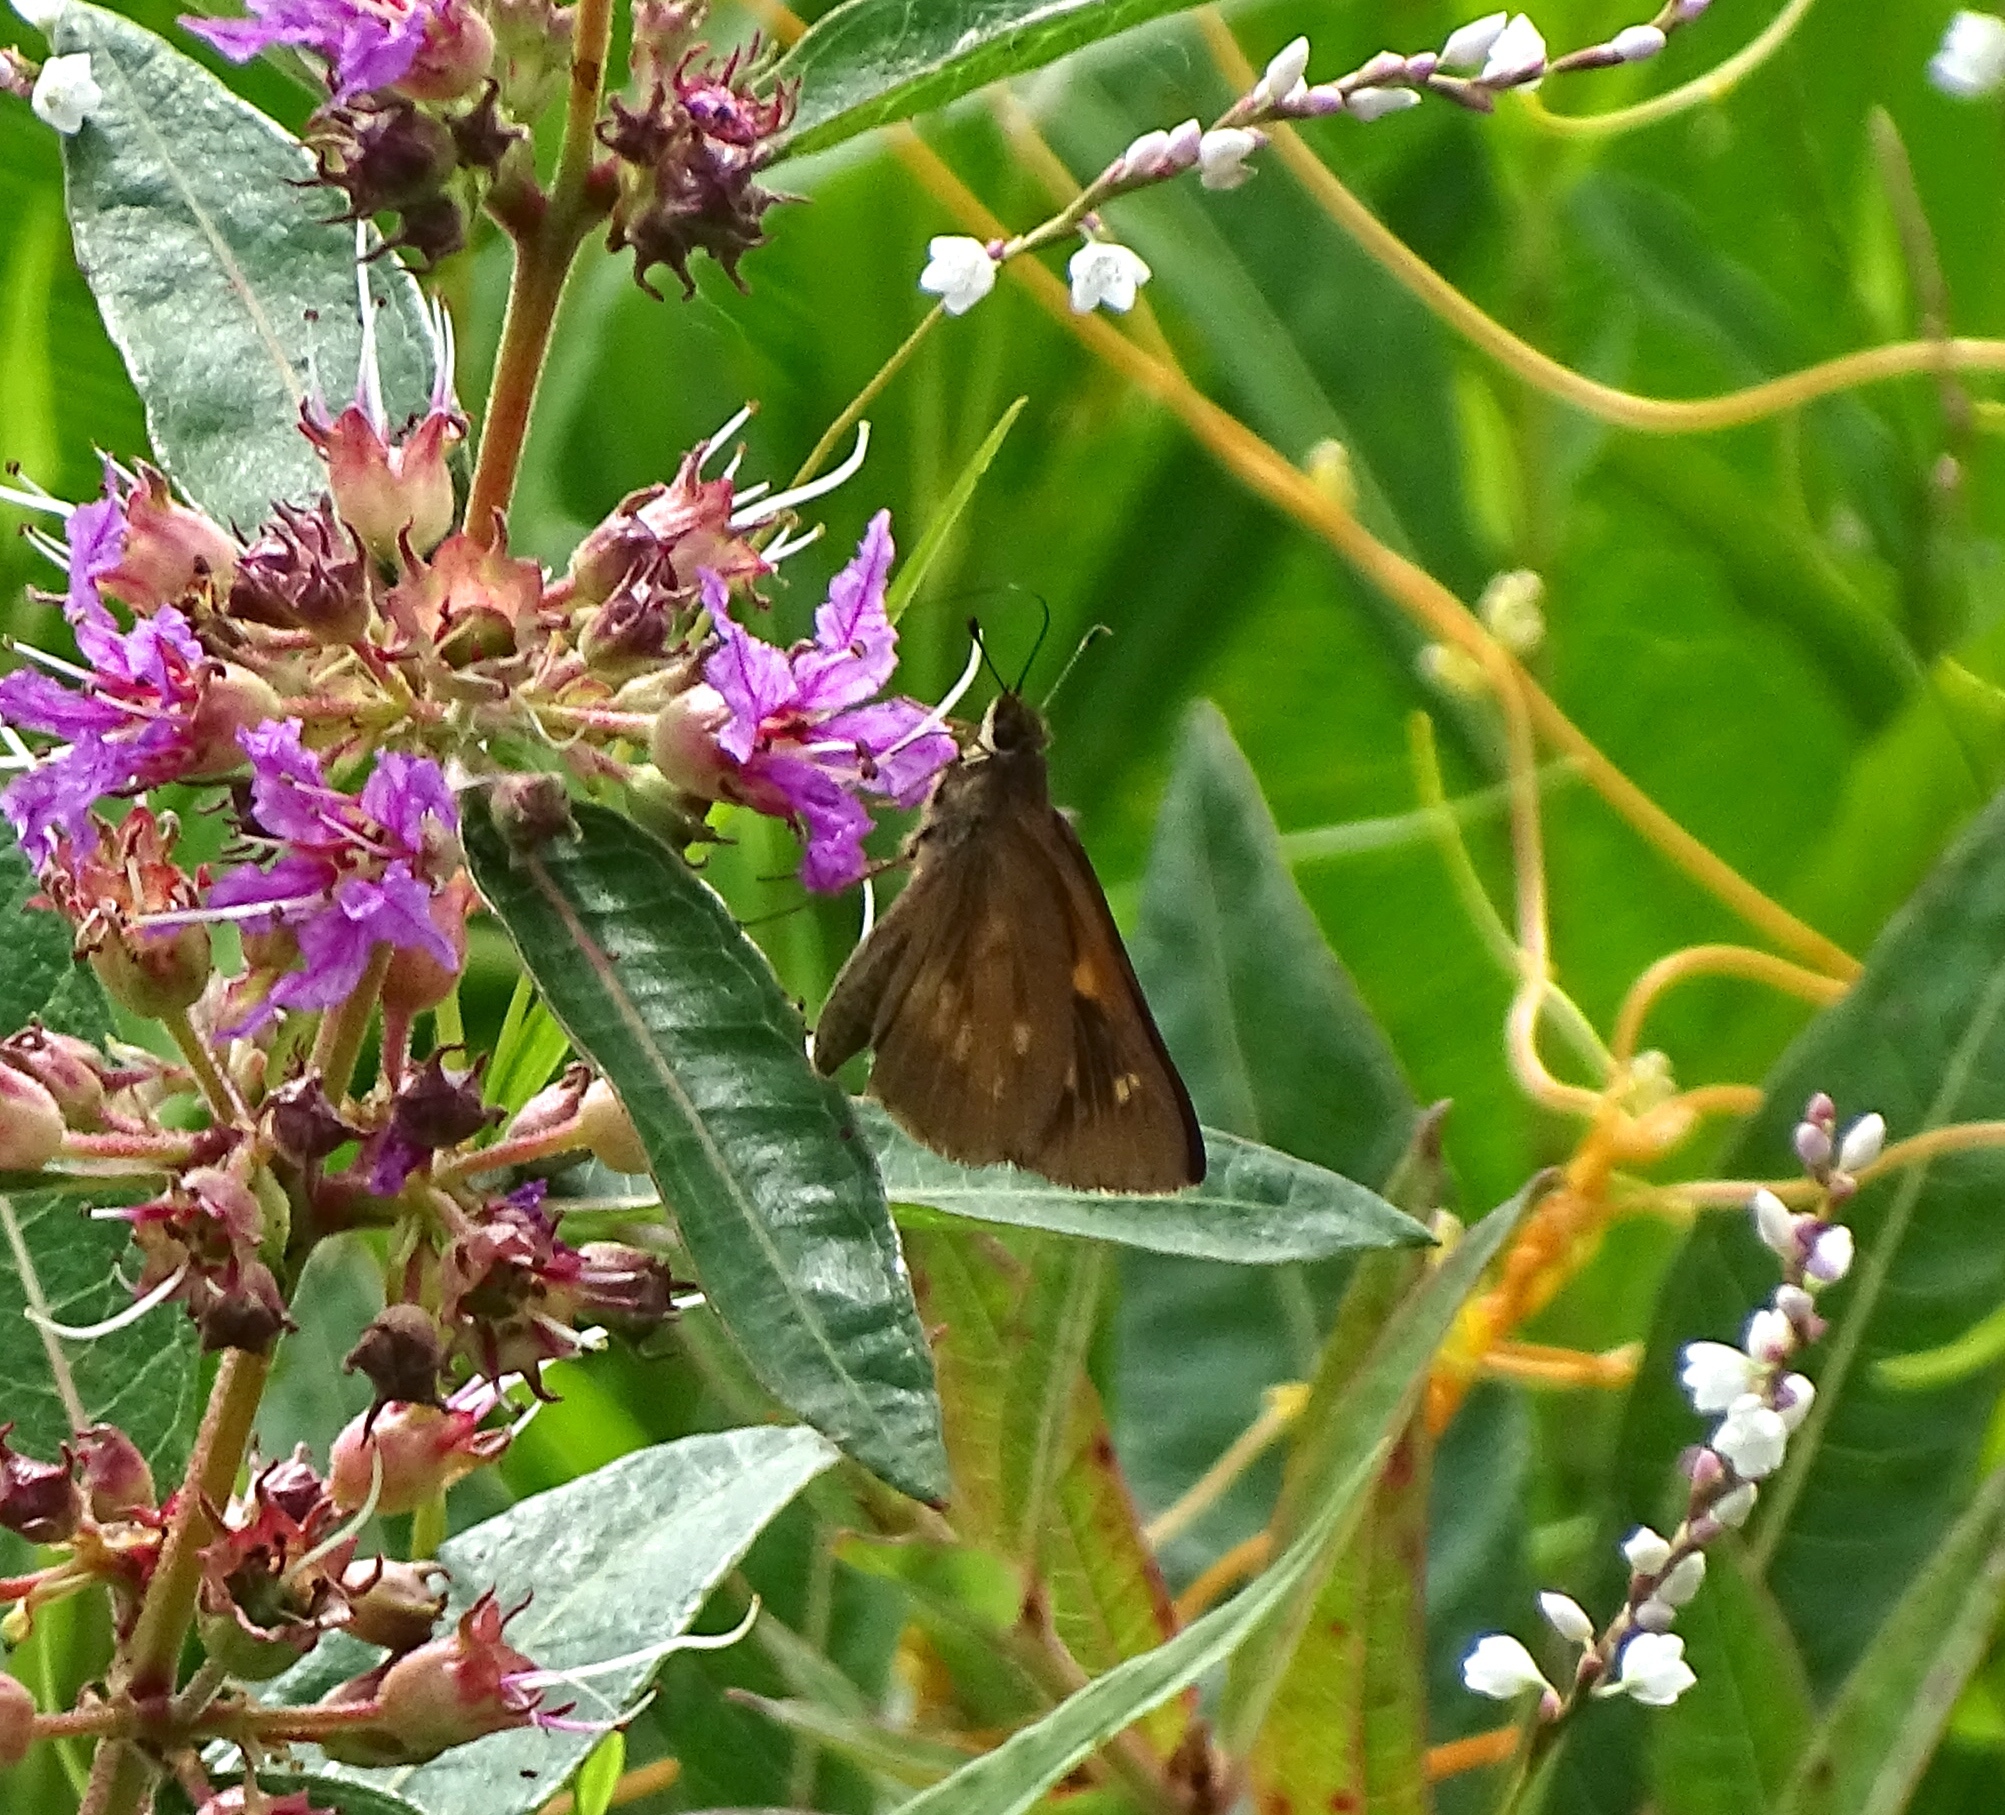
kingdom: Animalia
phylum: Arthropoda
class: Insecta
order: Lepidoptera
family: Hesperiidae
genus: Poanes
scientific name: Poanes viator
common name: Broad-winged skipper
